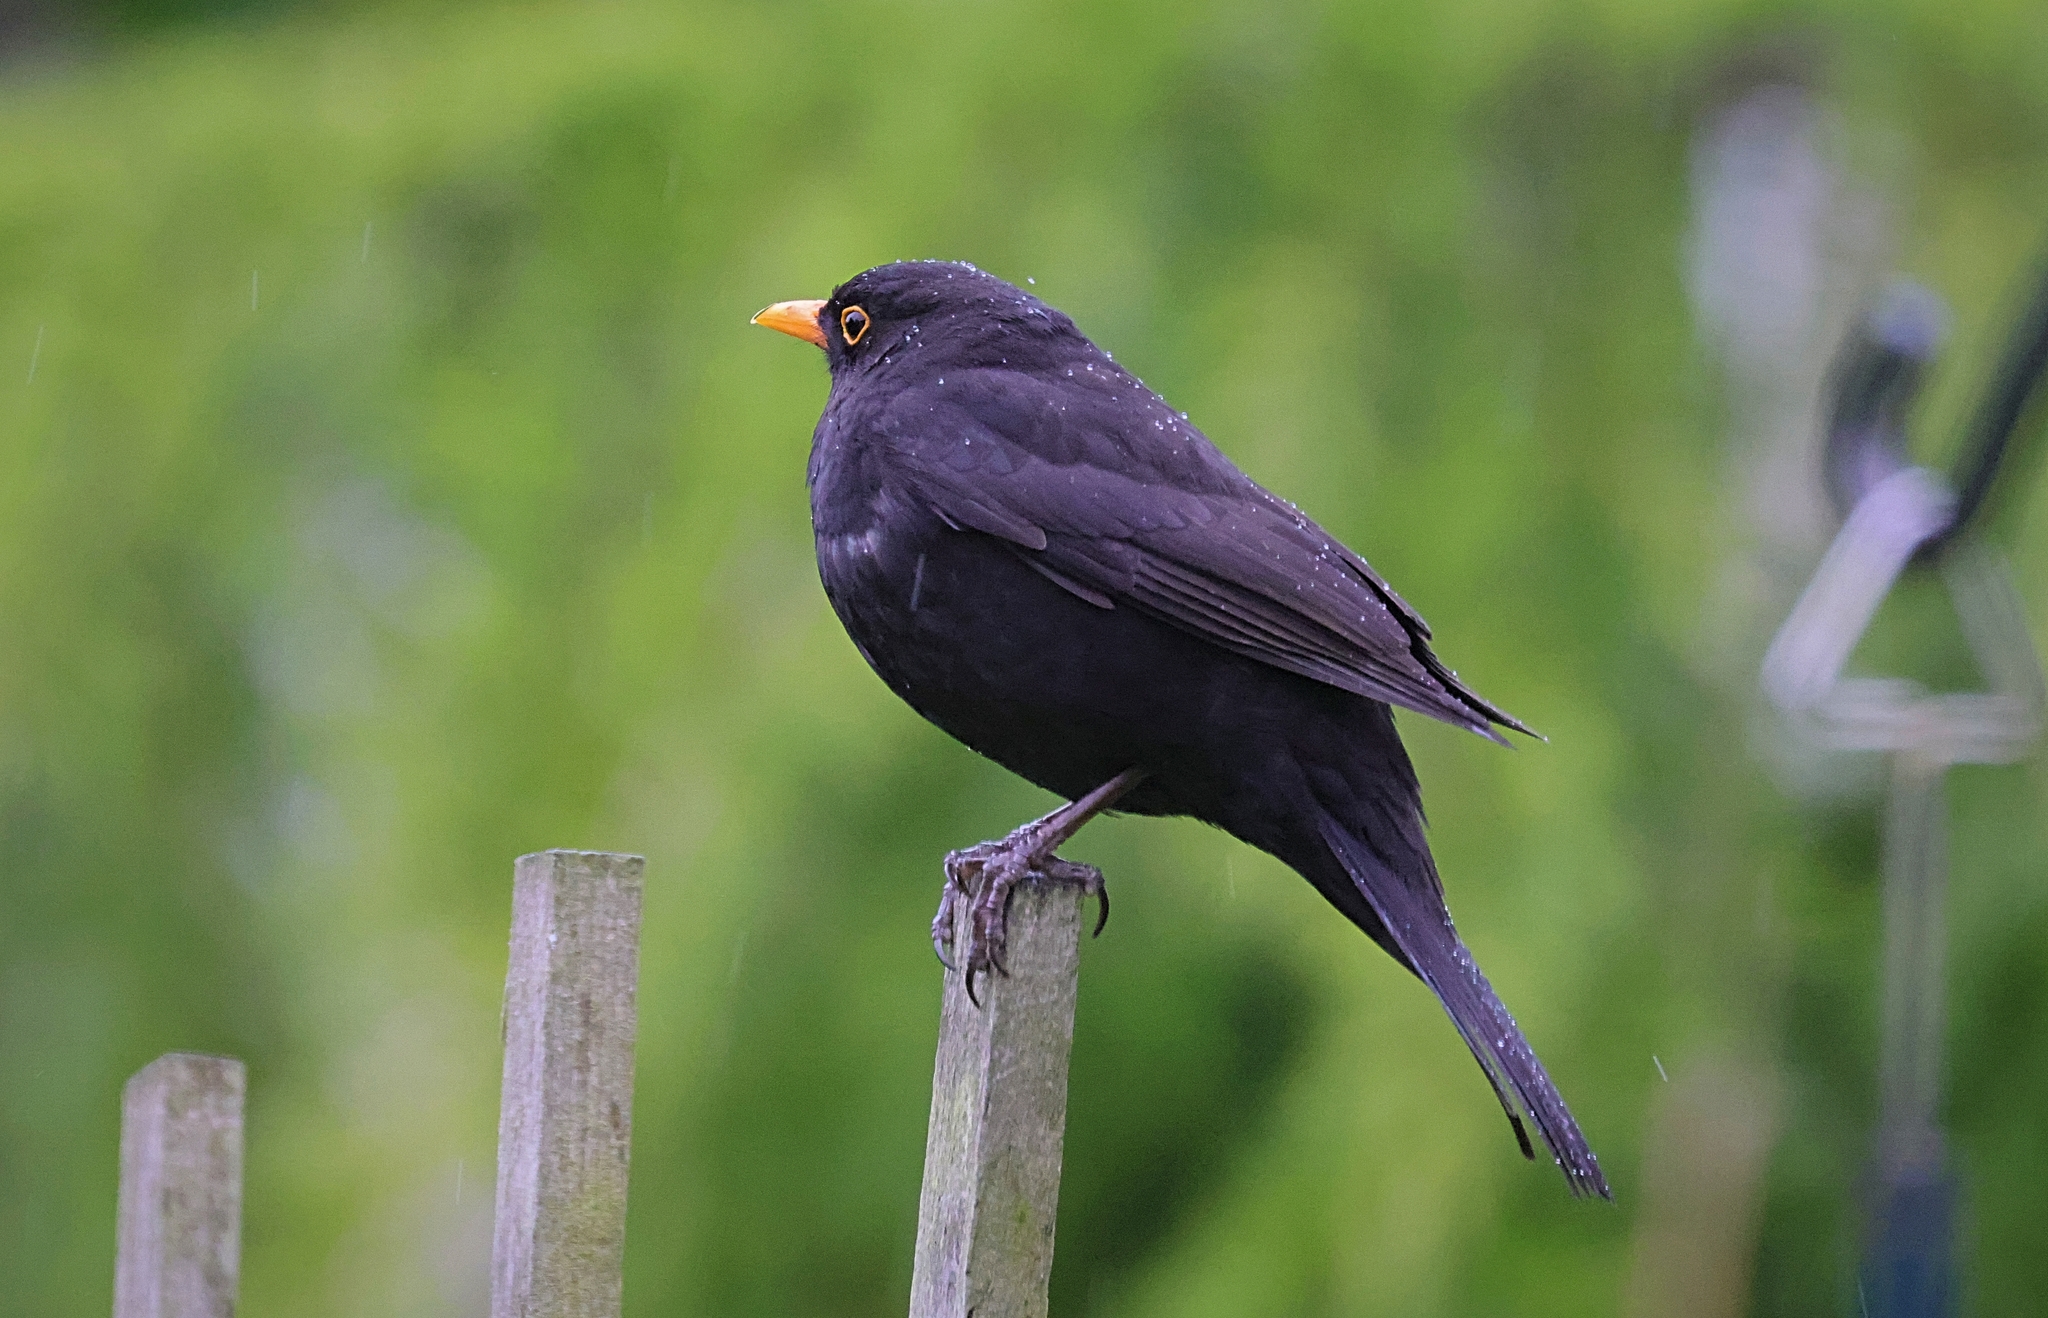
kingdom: Animalia
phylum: Chordata
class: Aves
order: Passeriformes
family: Turdidae
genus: Turdus
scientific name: Turdus merula
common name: Common blackbird
